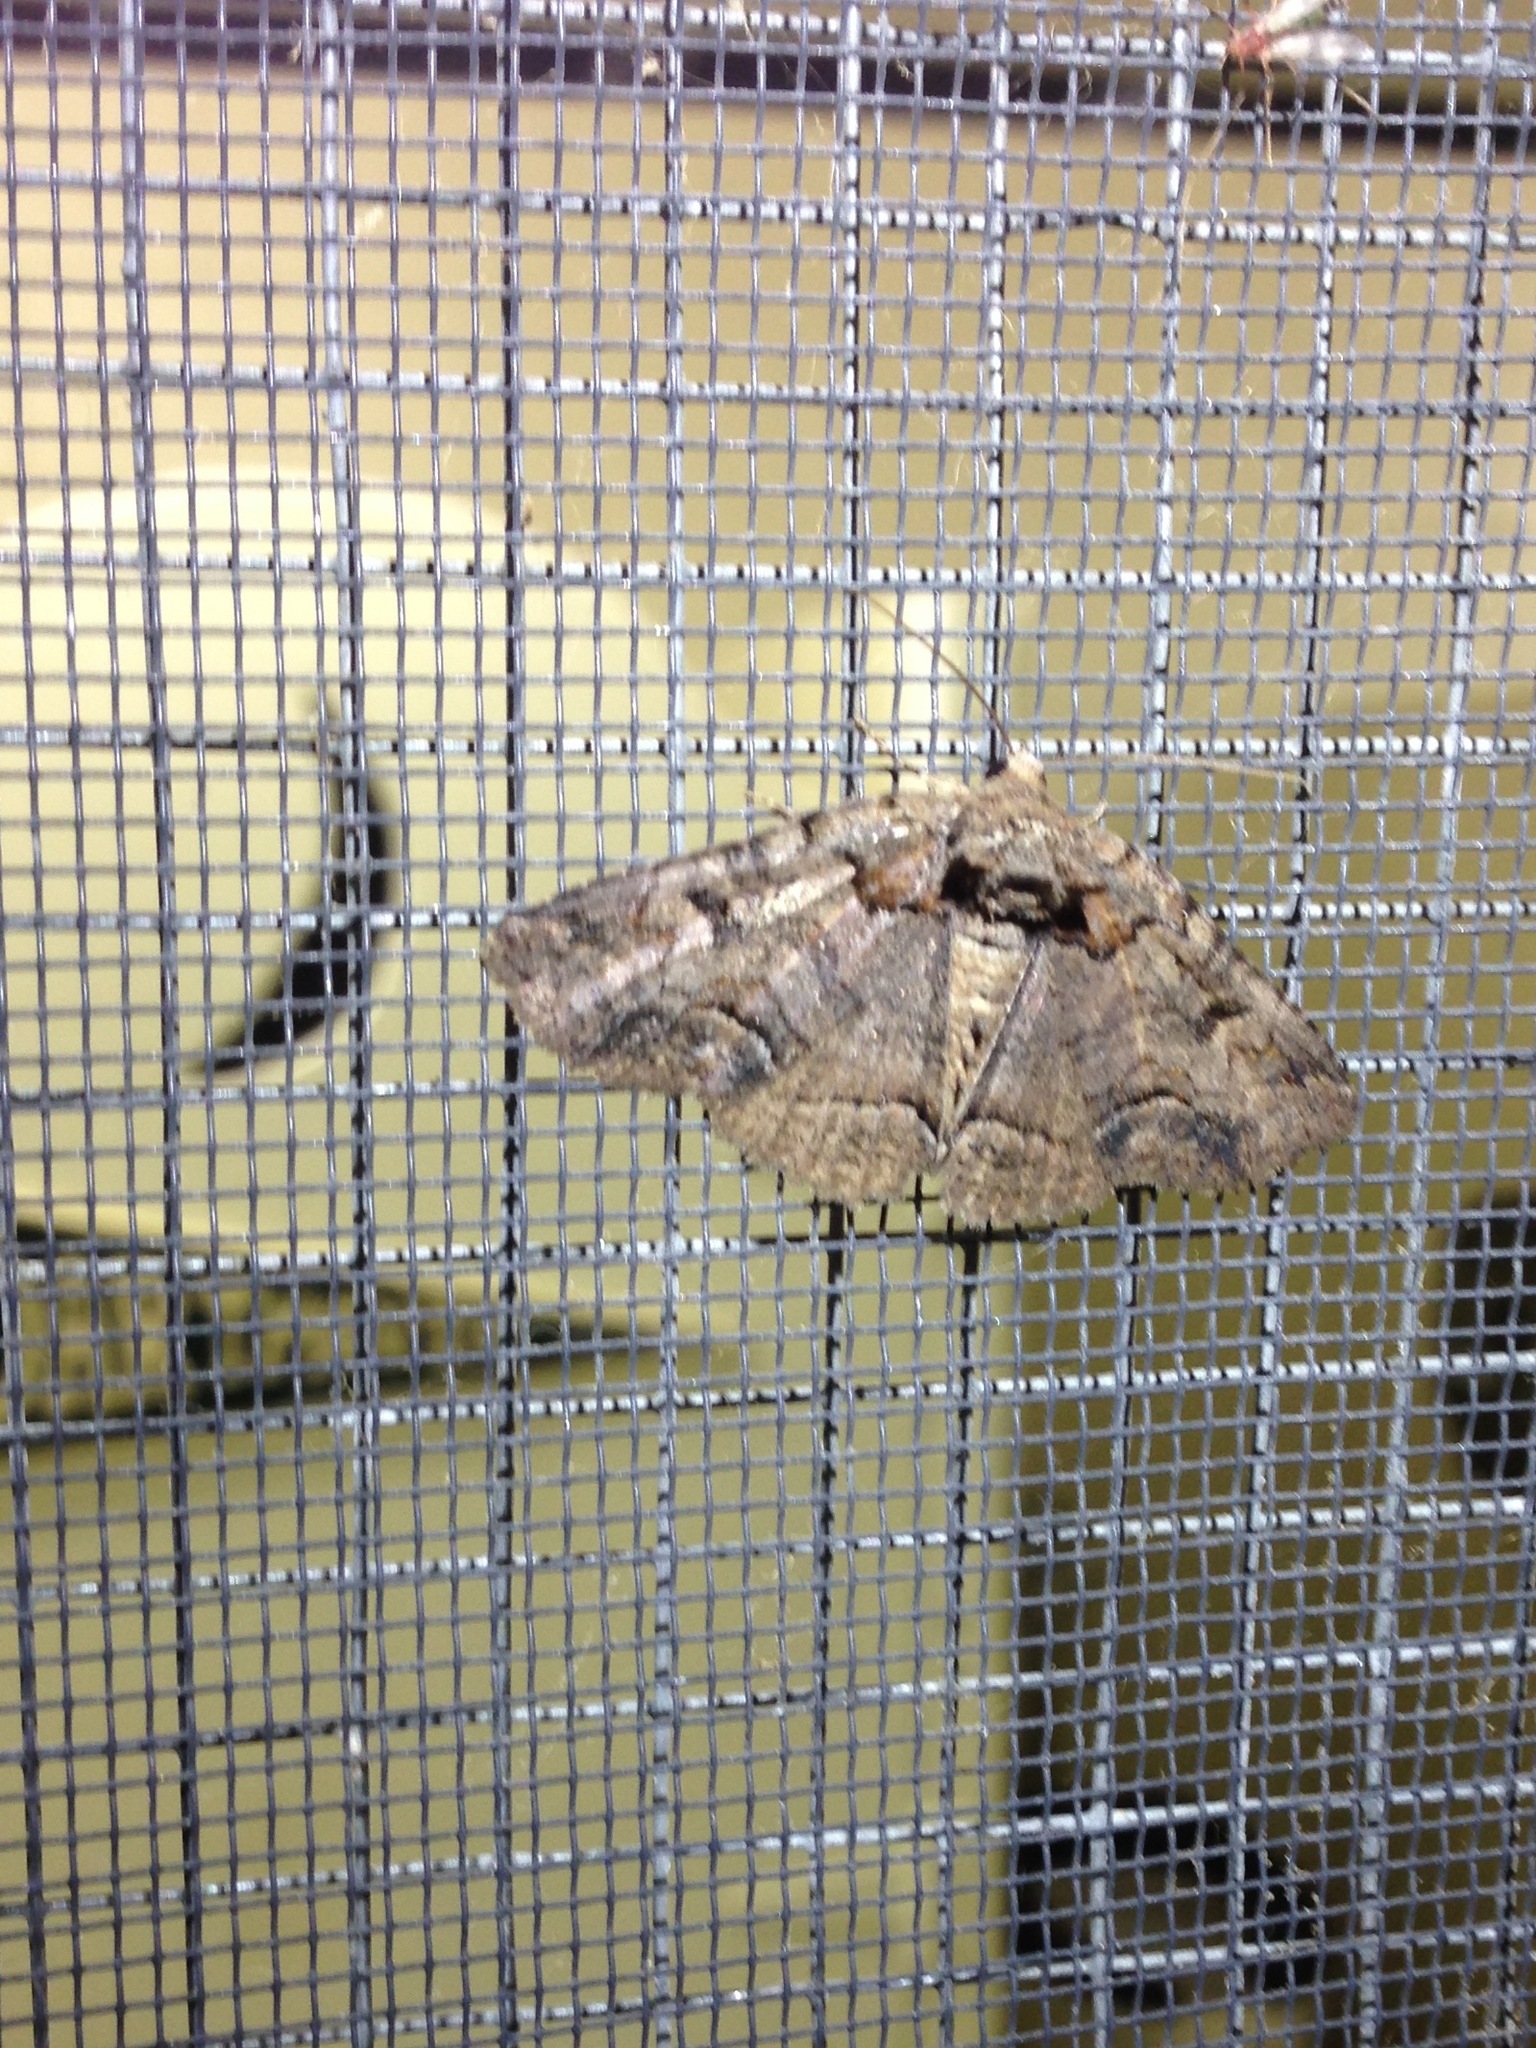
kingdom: Animalia
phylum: Arthropoda
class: Insecta
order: Lepidoptera
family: Erebidae
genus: Zale
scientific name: Zale helata
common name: Brown-spotted zale moth
